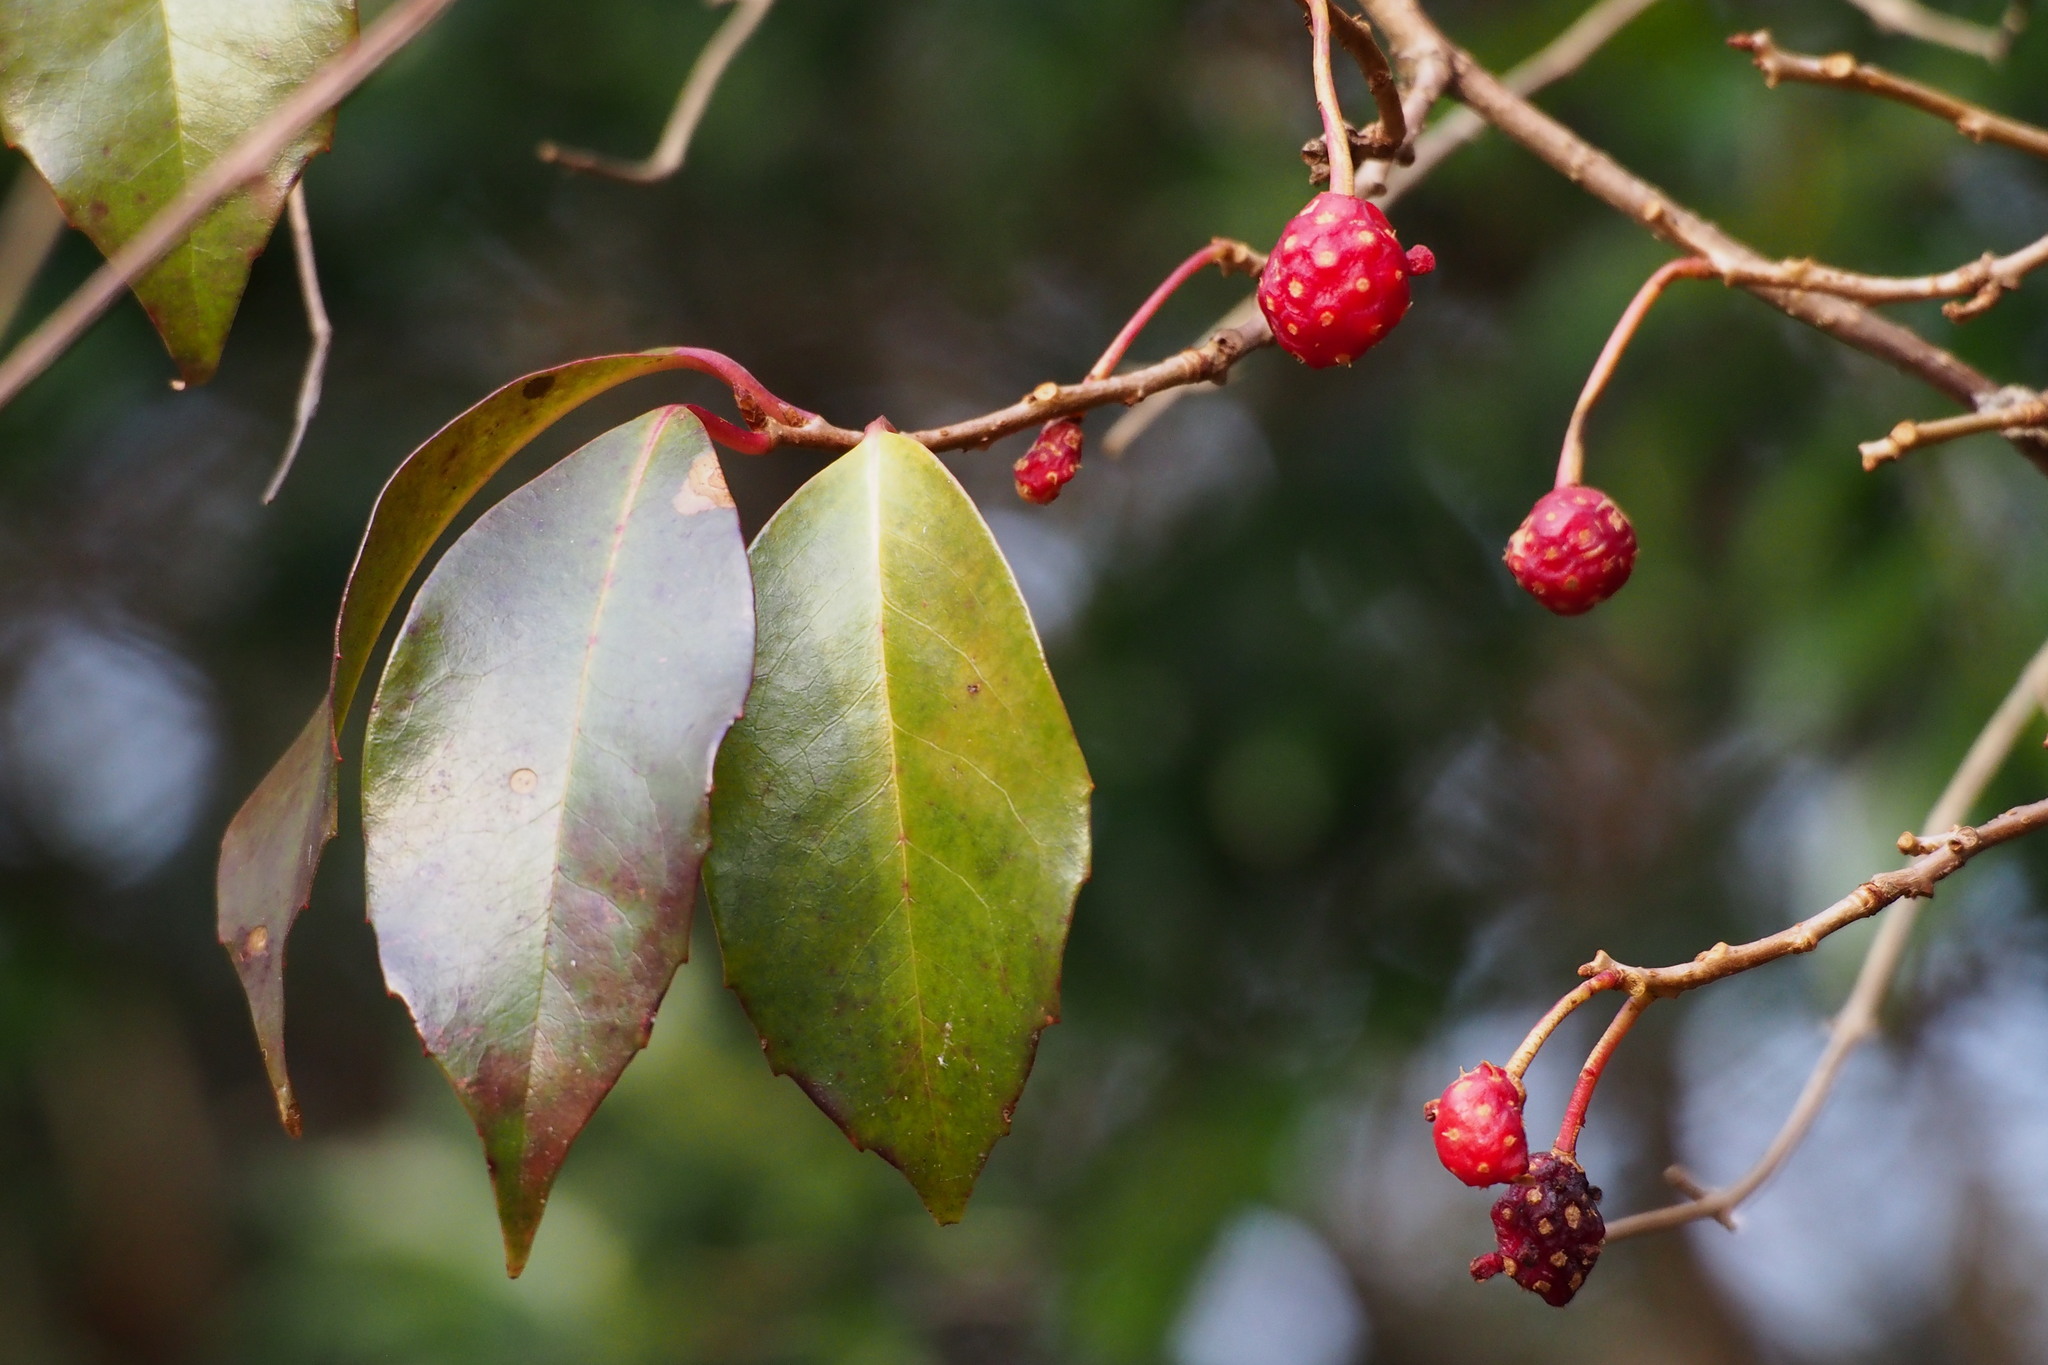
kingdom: Plantae
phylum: Tracheophyta
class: Magnoliopsida
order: Austrobaileyales
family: Schisandraceae
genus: Kadsura
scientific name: Kadsura japonica
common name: Japanese kadsura
